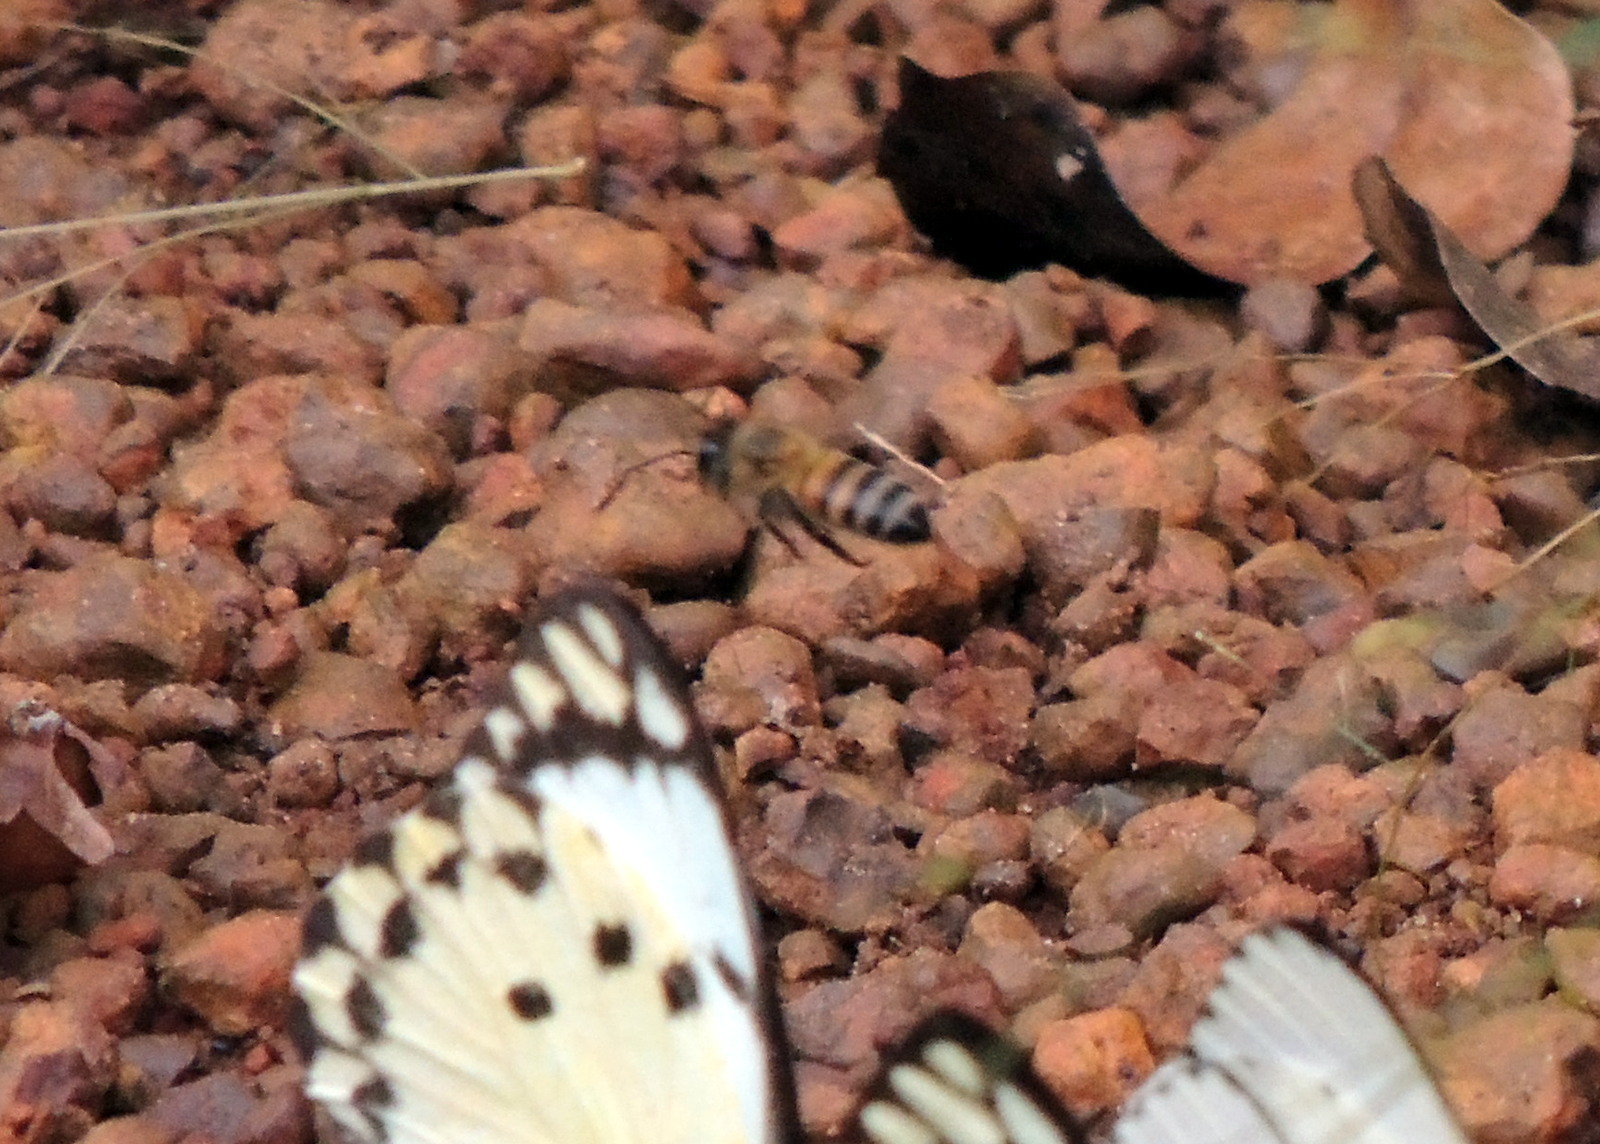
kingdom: Animalia
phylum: Arthropoda
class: Insecta
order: Hymenoptera
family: Apidae
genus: Apis
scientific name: Apis mellifera
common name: Honey bee
